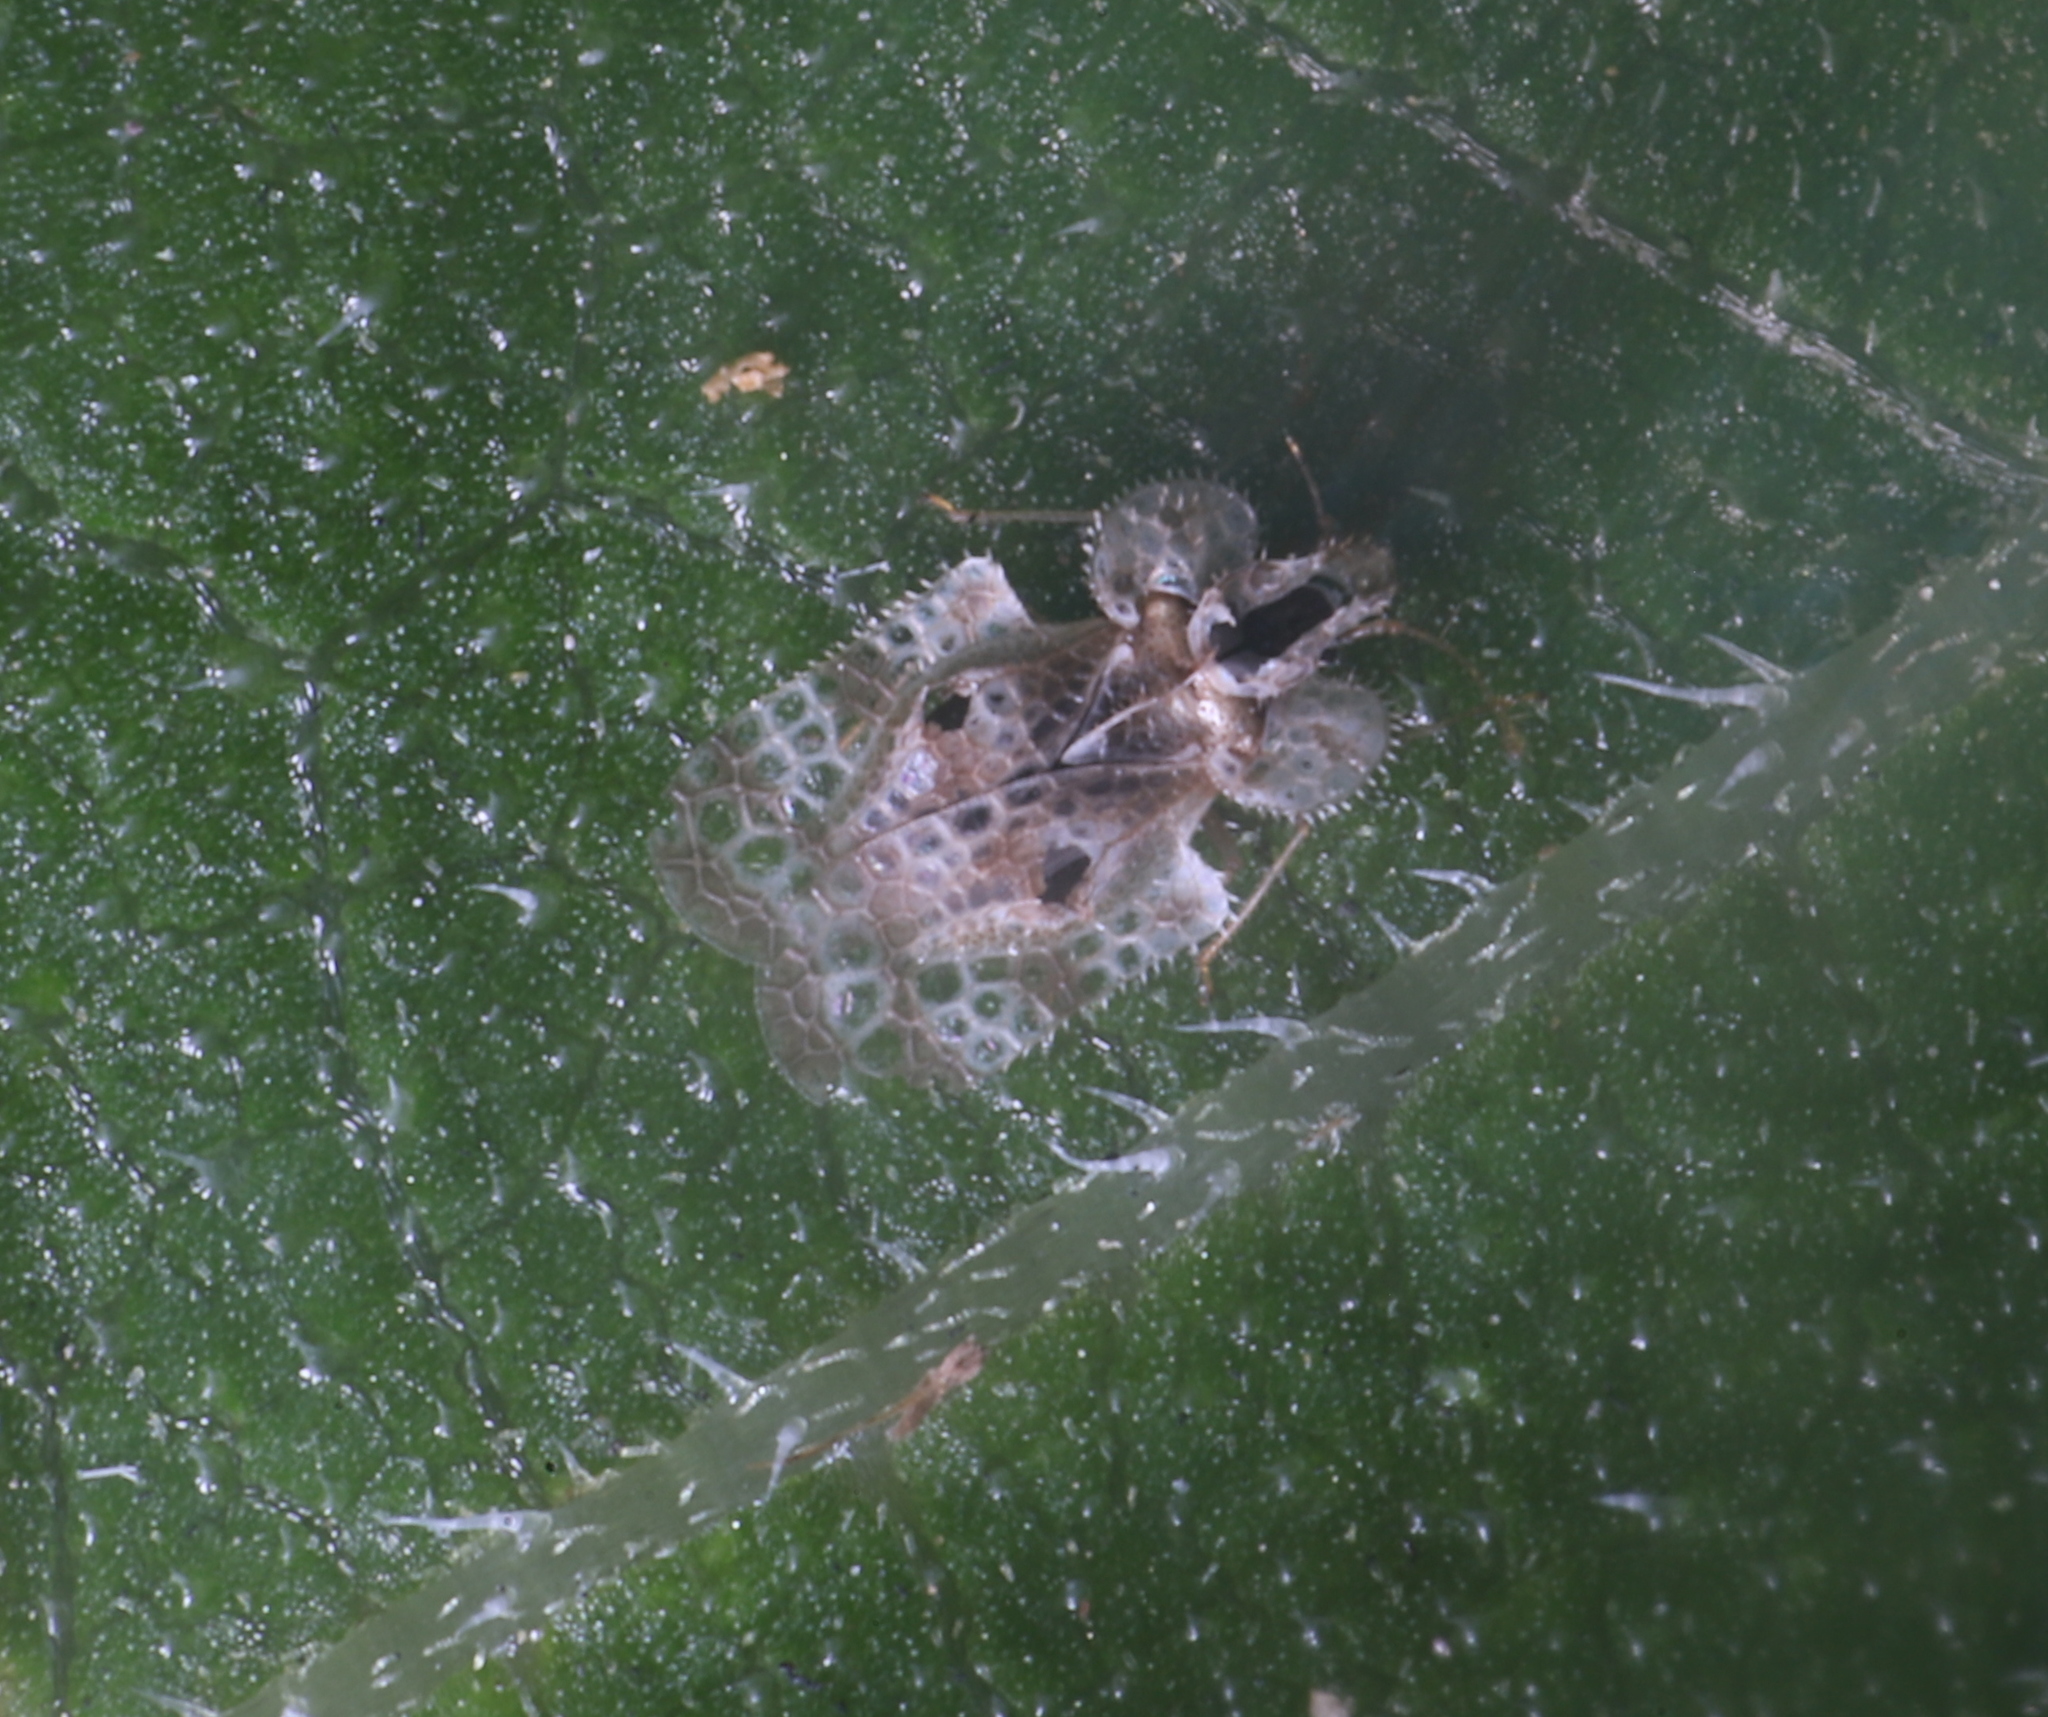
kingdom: Animalia
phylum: Arthropoda
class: Insecta
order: Hemiptera
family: Tingidae
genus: Corythucha
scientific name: Corythucha marmorata
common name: Chrysanthemum lace bug
